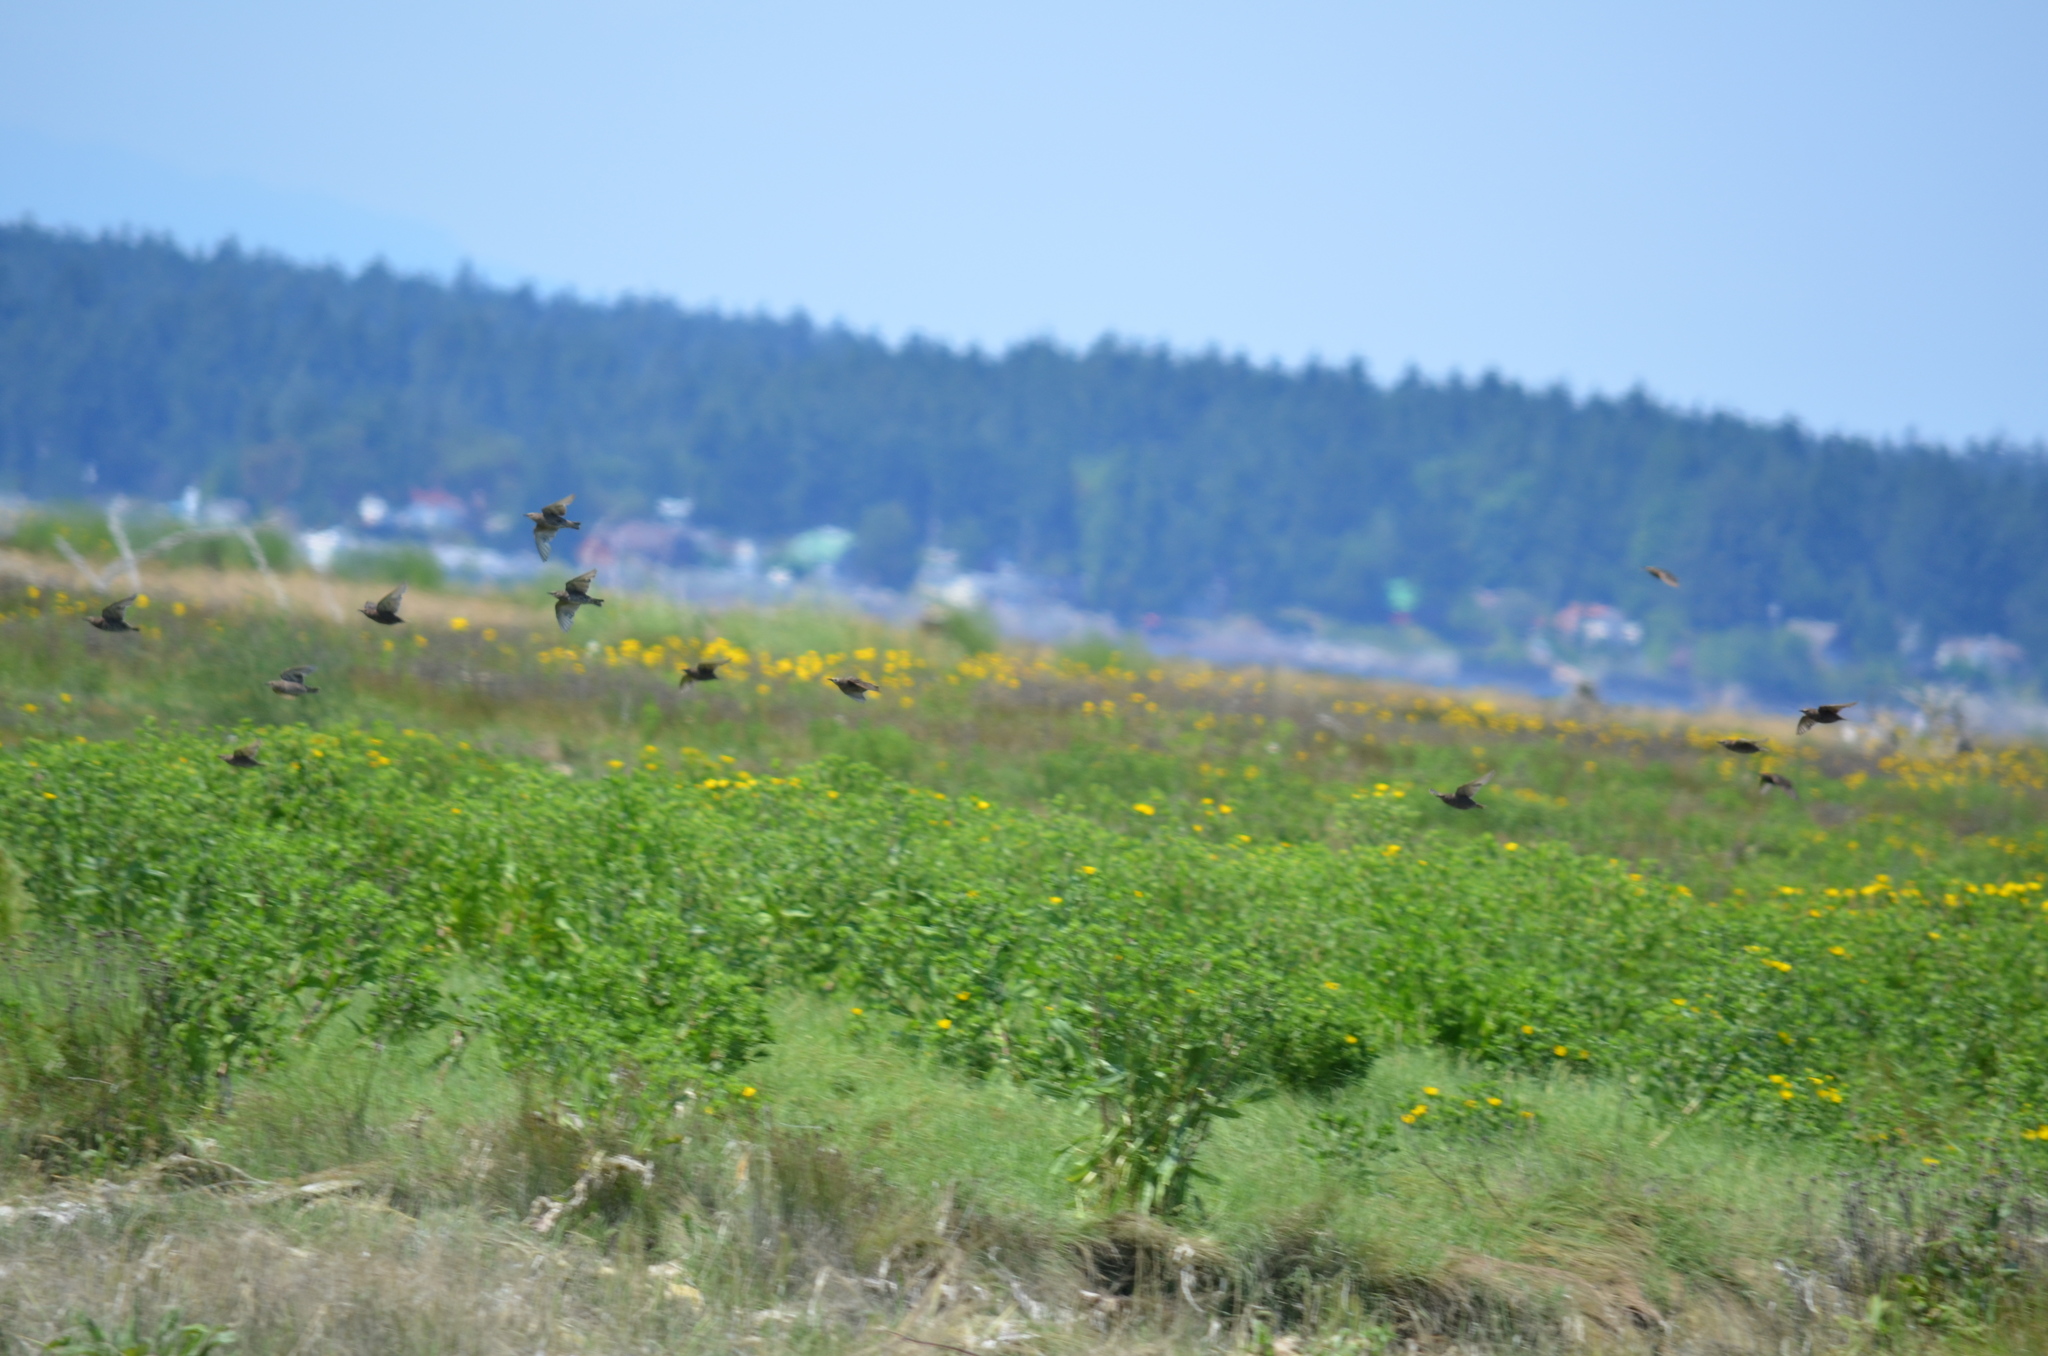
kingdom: Animalia
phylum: Chordata
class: Aves
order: Passeriformes
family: Sturnidae
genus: Sturnus
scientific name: Sturnus vulgaris
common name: Common starling
